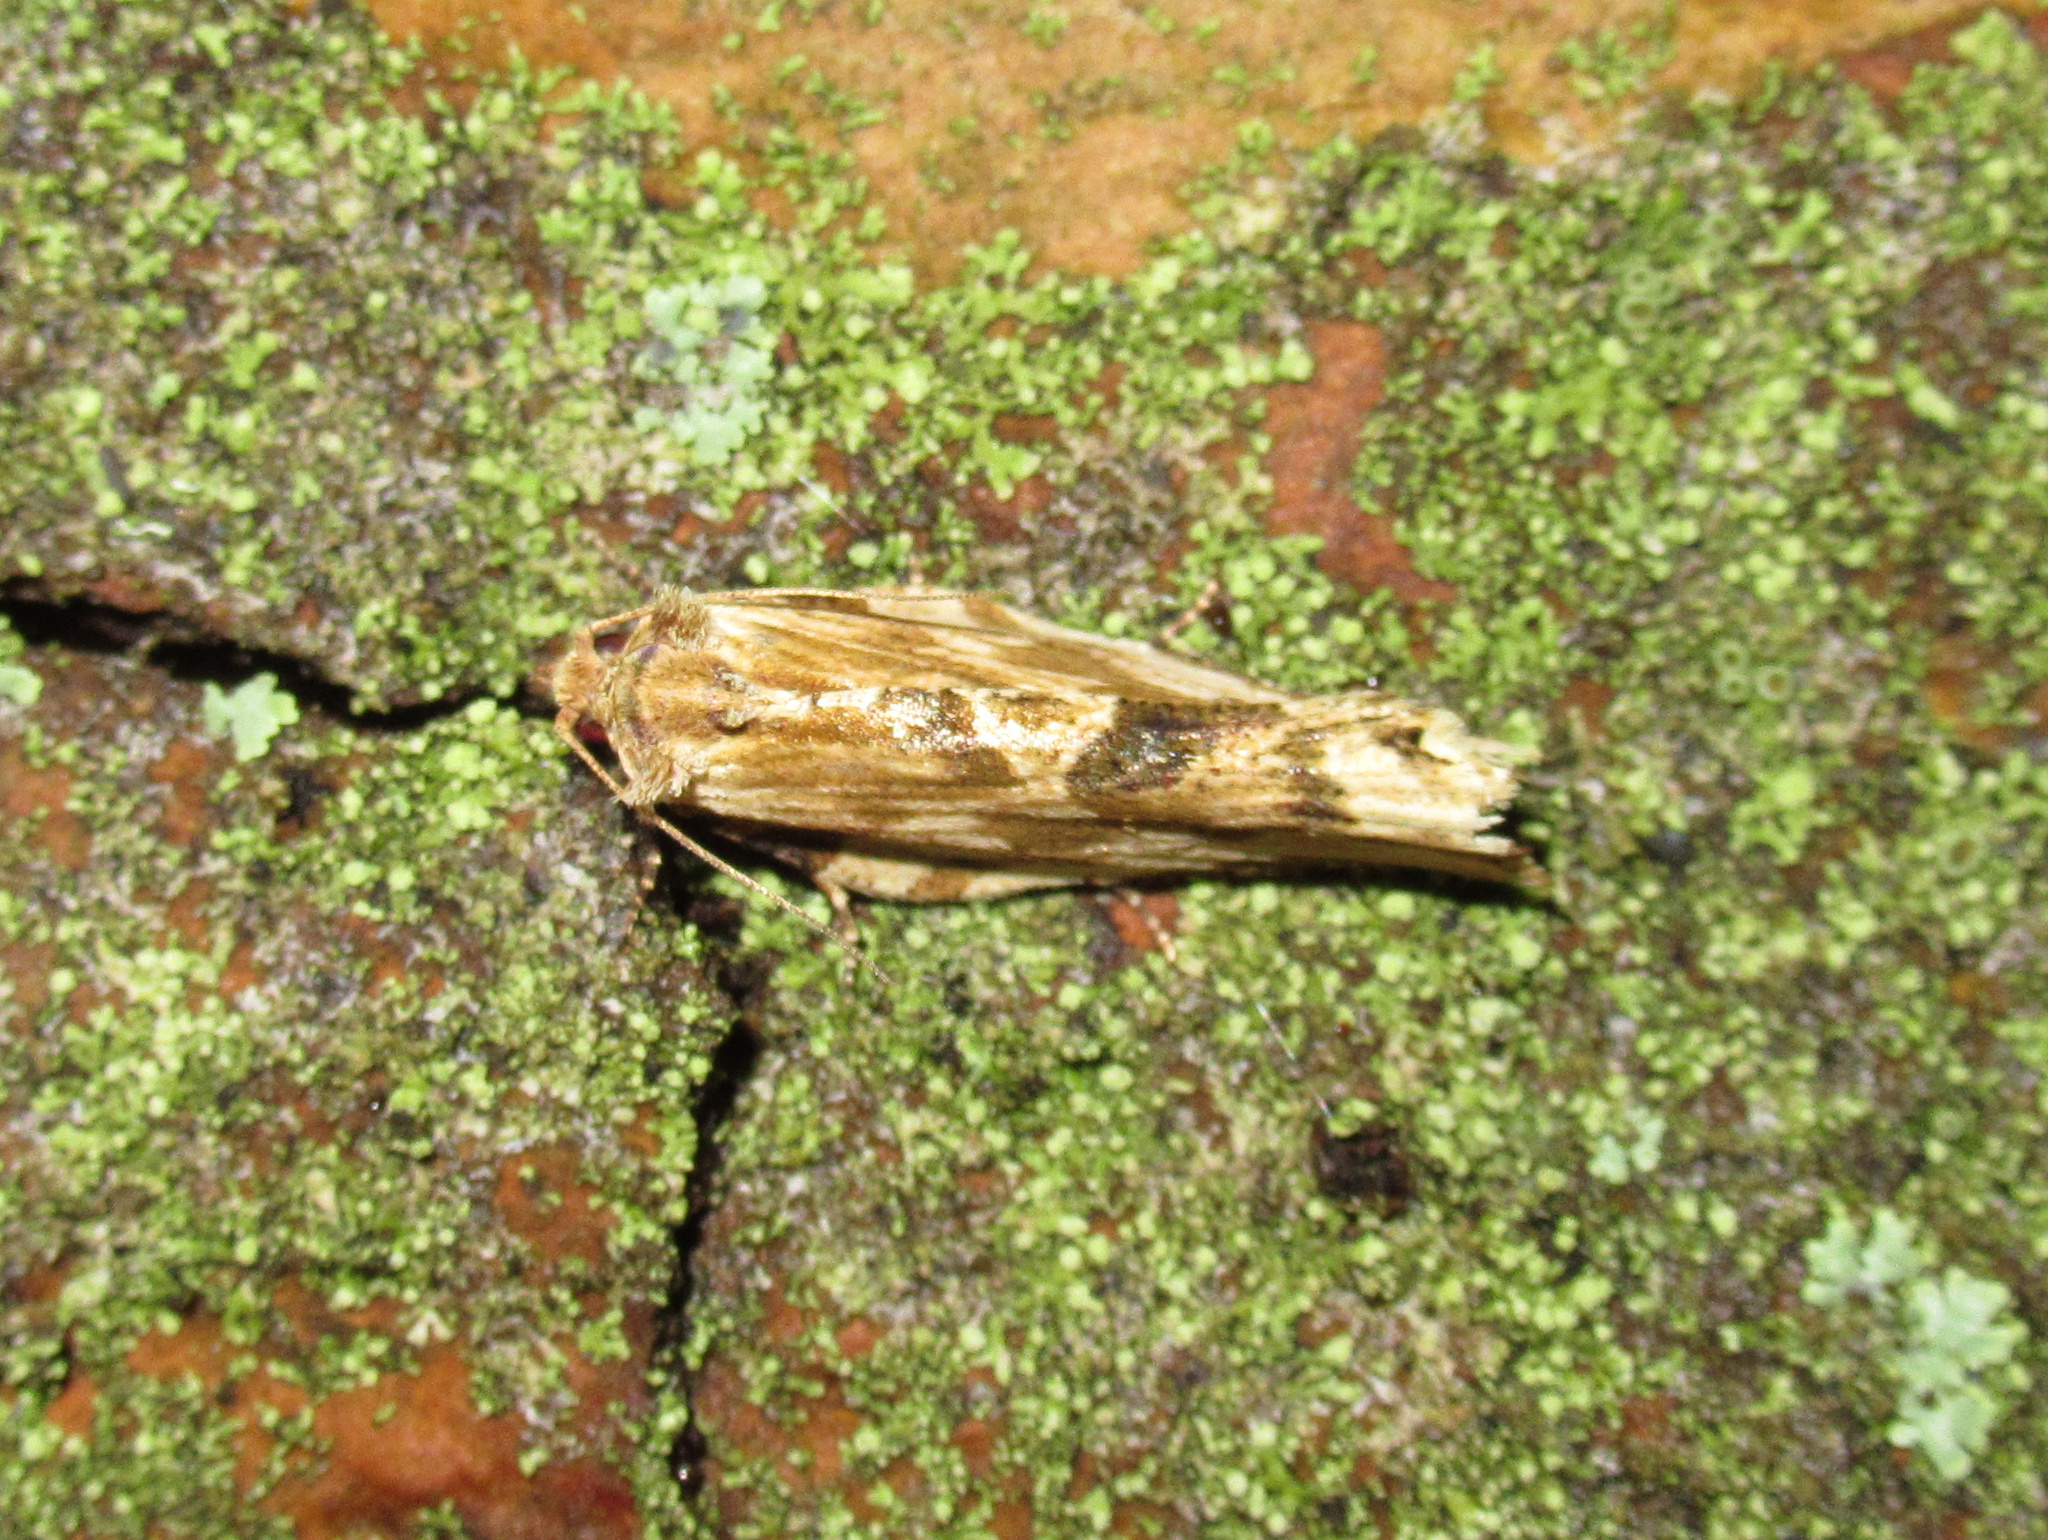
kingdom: Animalia
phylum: Arthropoda
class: Insecta
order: Lepidoptera
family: Tortricidae
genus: Epalxiphora
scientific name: Epalxiphora axenana
